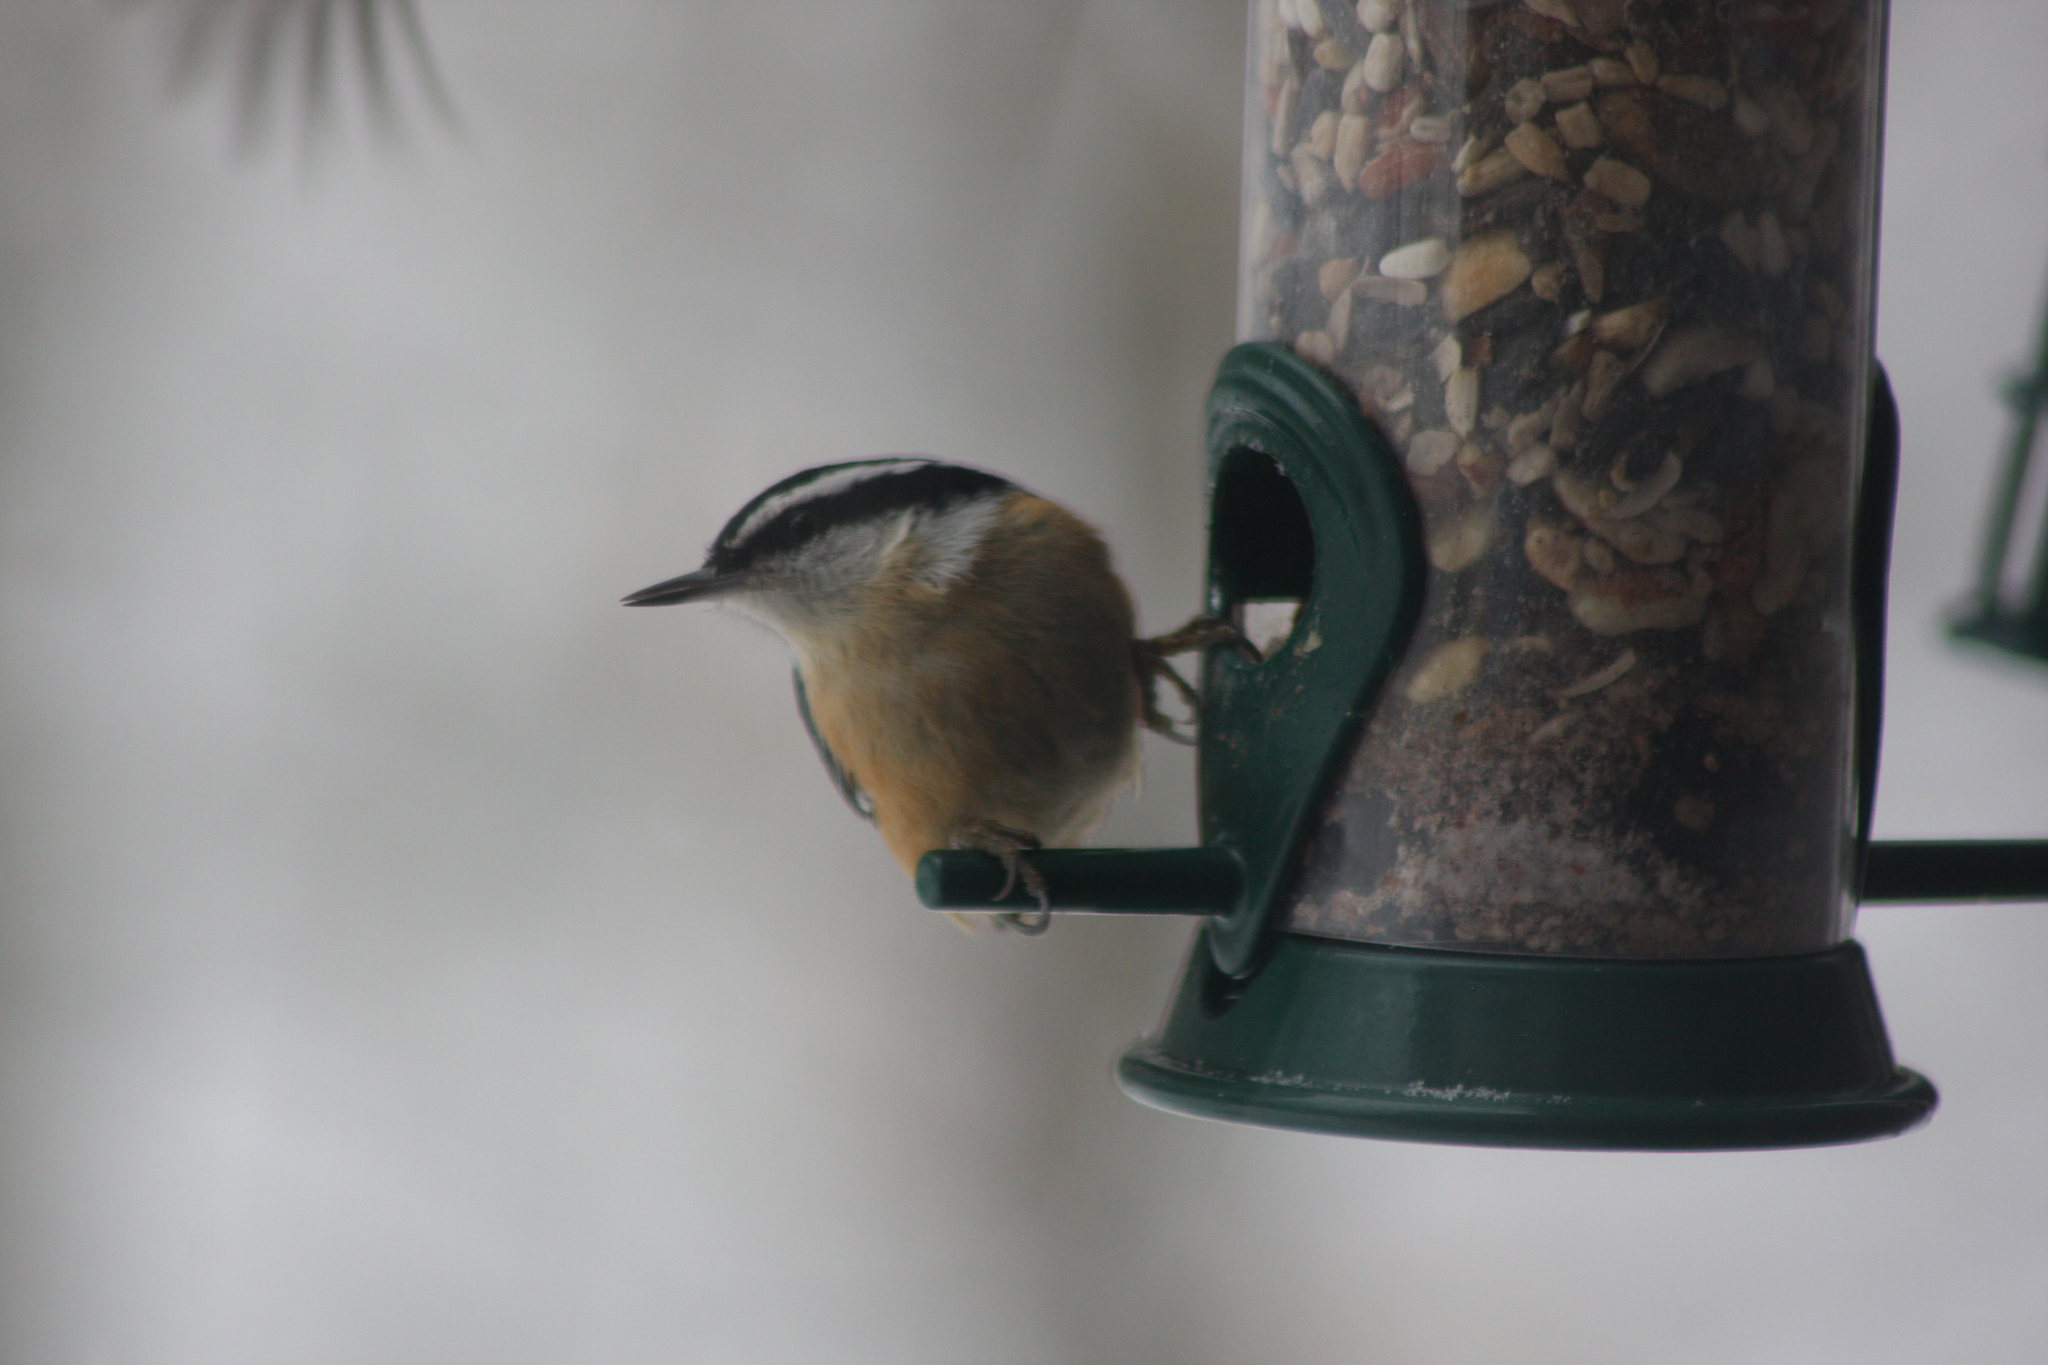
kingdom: Animalia
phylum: Chordata
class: Aves
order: Passeriformes
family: Sittidae
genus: Sitta
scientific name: Sitta canadensis
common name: Red-breasted nuthatch
